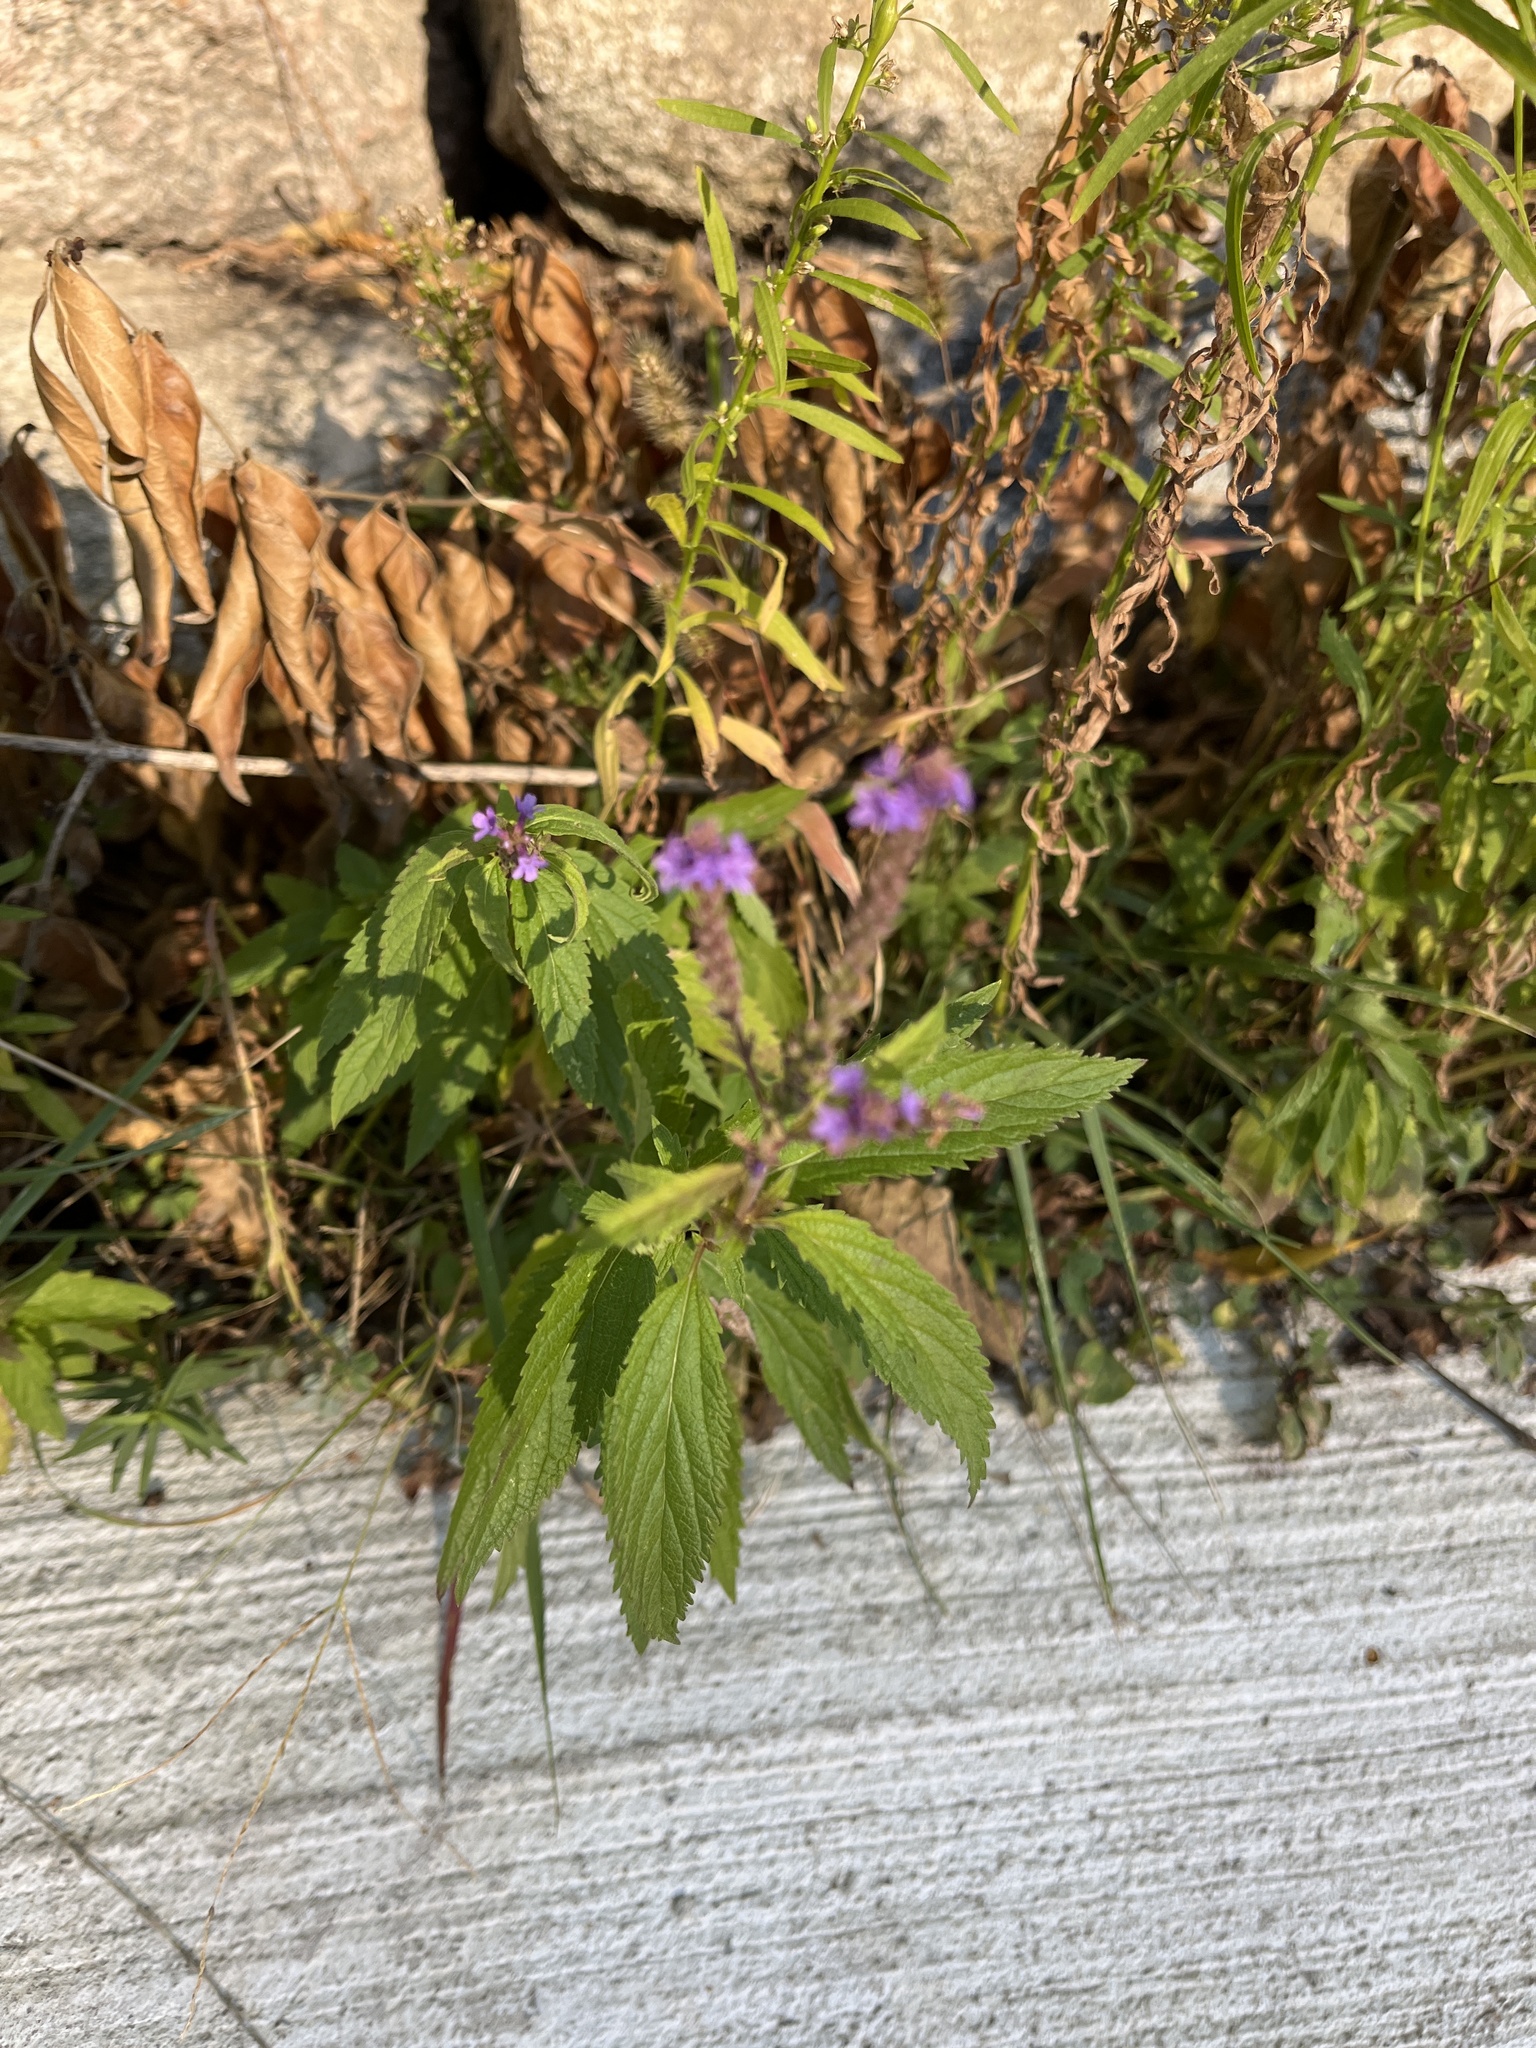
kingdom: Plantae
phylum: Tracheophyta
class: Magnoliopsida
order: Lamiales
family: Verbenaceae
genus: Verbena
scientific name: Verbena hastata
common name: American blue vervain
